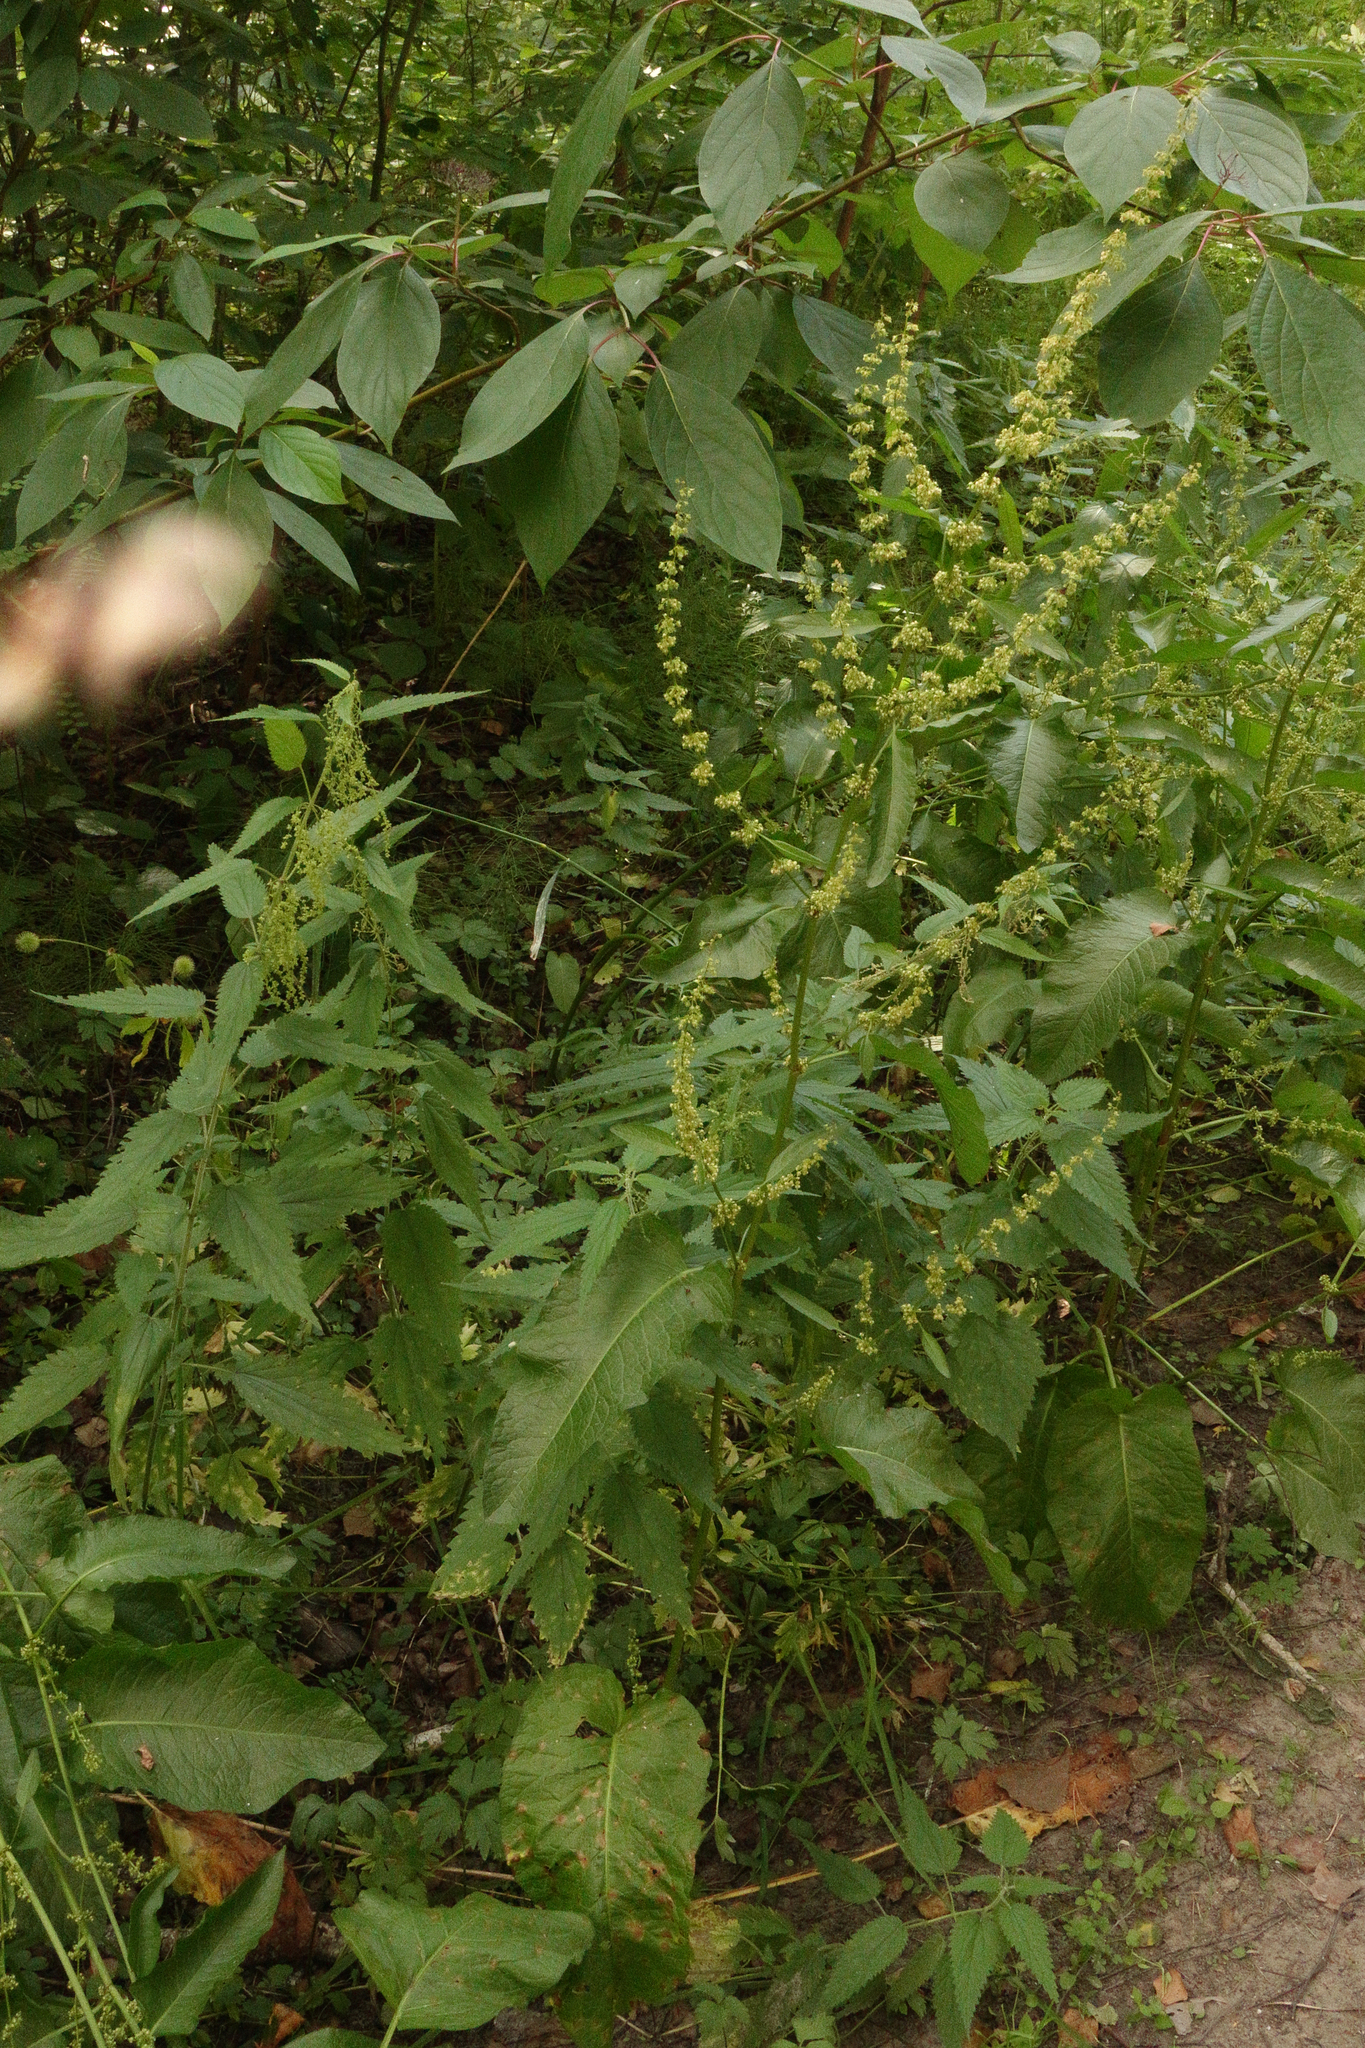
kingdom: Plantae
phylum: Tracheophyta
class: Magnoliopsida
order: Caryophyllales
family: Polygonaceae
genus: Rumex
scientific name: Rumex obtusifolius
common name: Bitter dock
